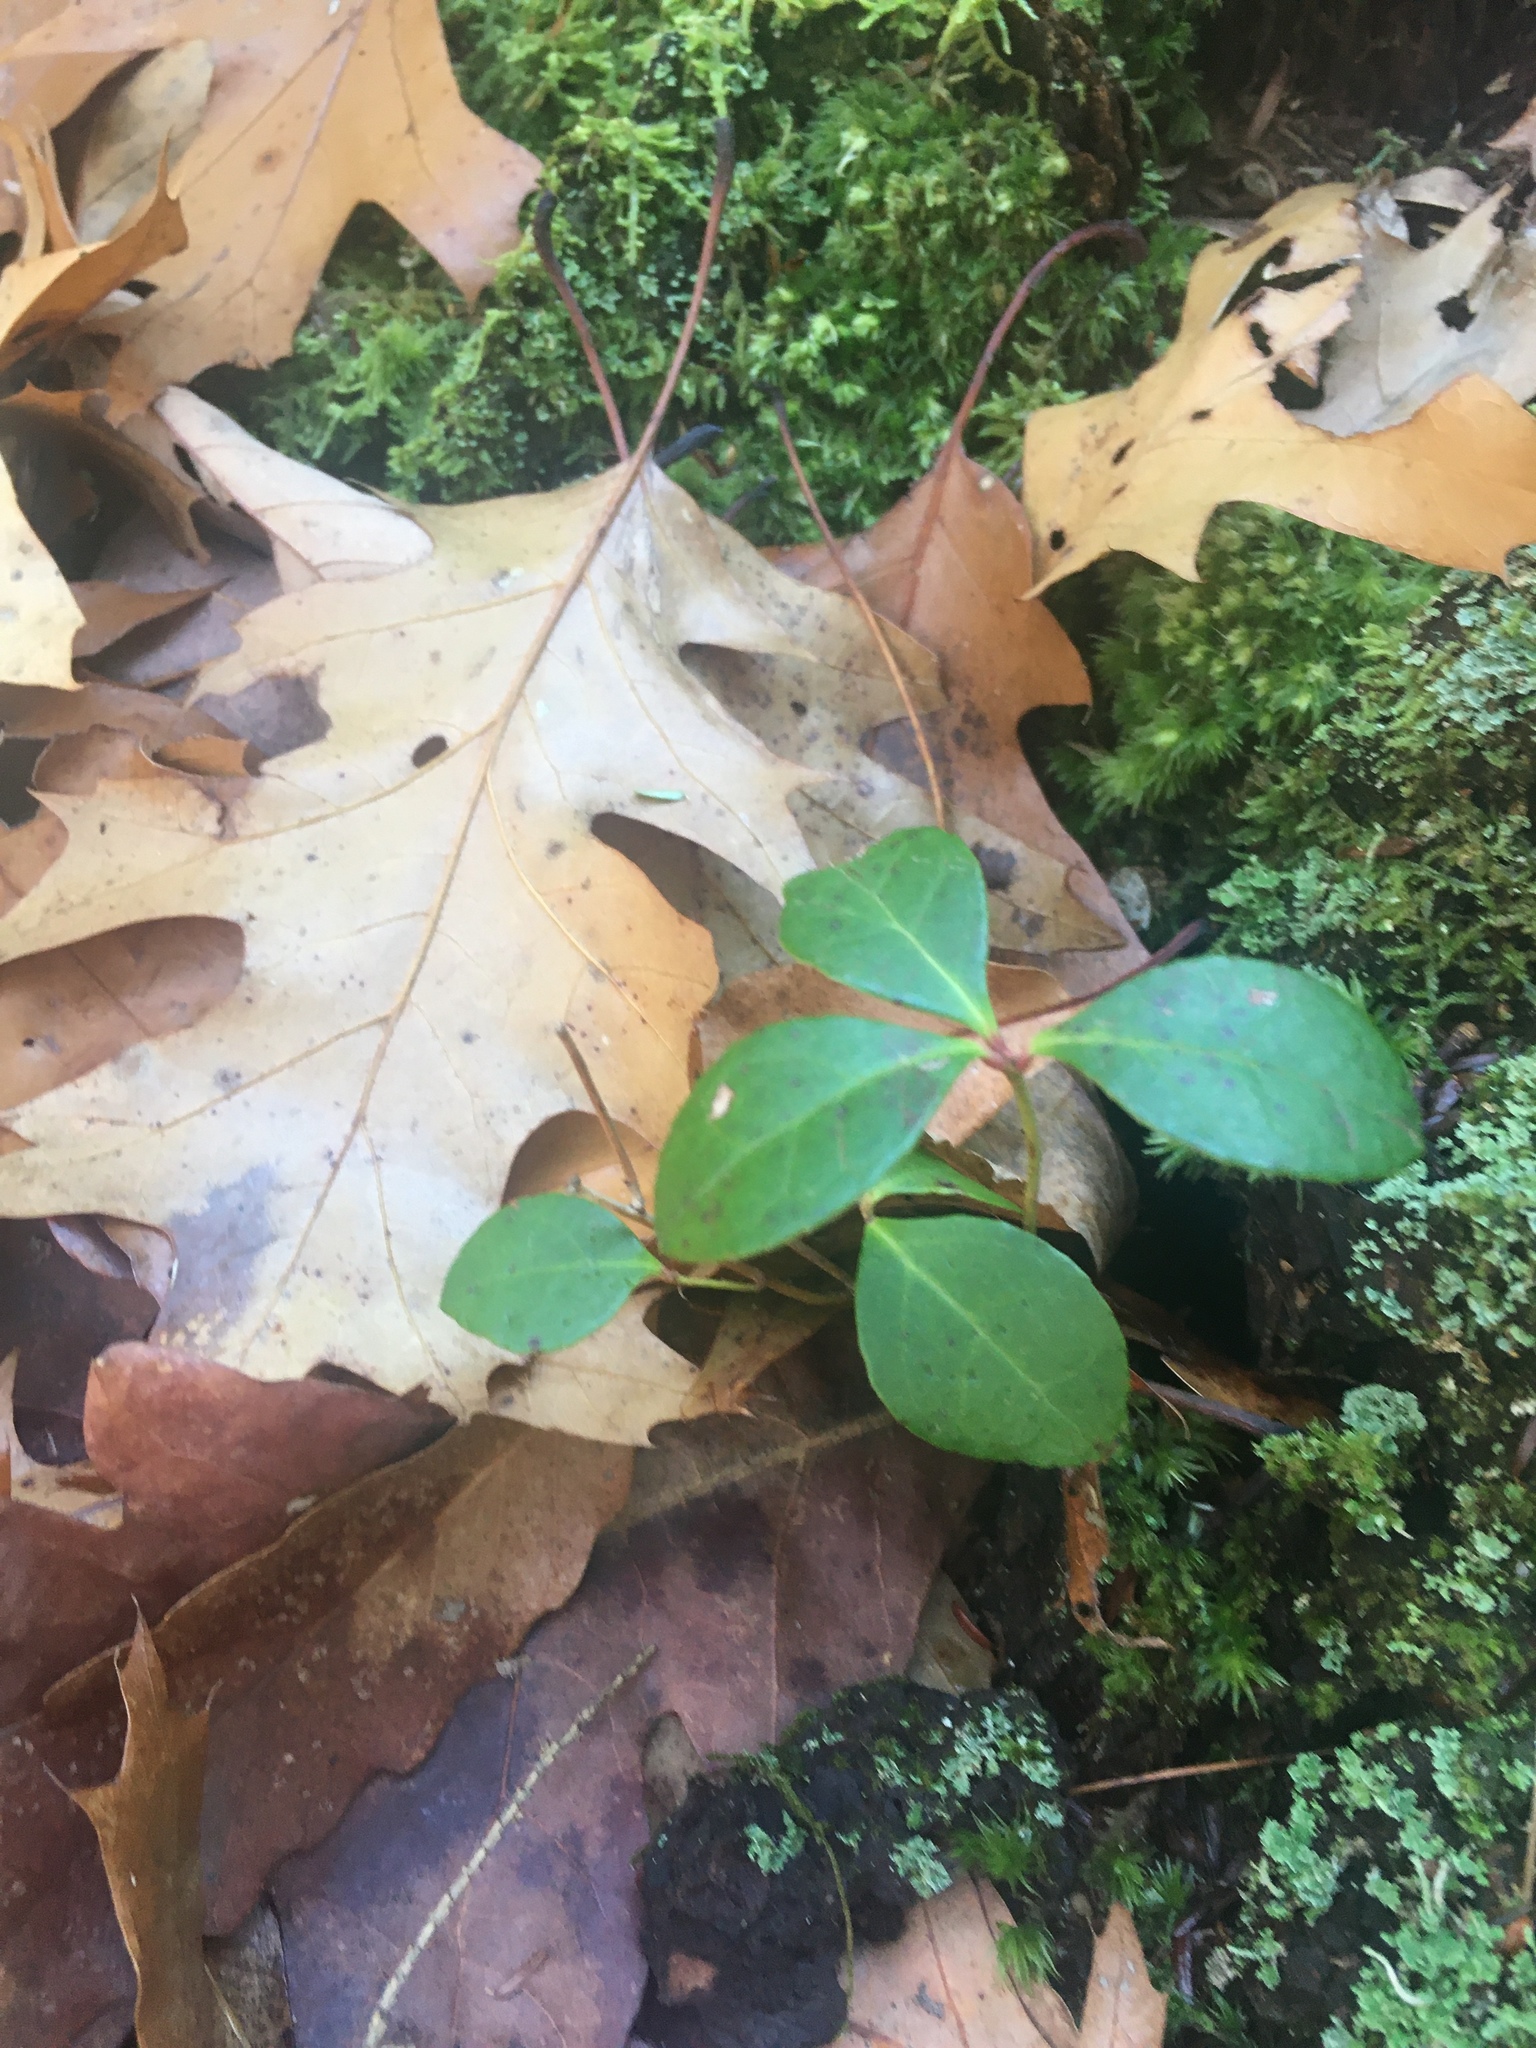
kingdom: Plantae
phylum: Tracheophyta
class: Magnoliopsida
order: Ericales
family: Ericaceae
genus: Gaultheria
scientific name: Gaultheria procumbens
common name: Checkerberry
